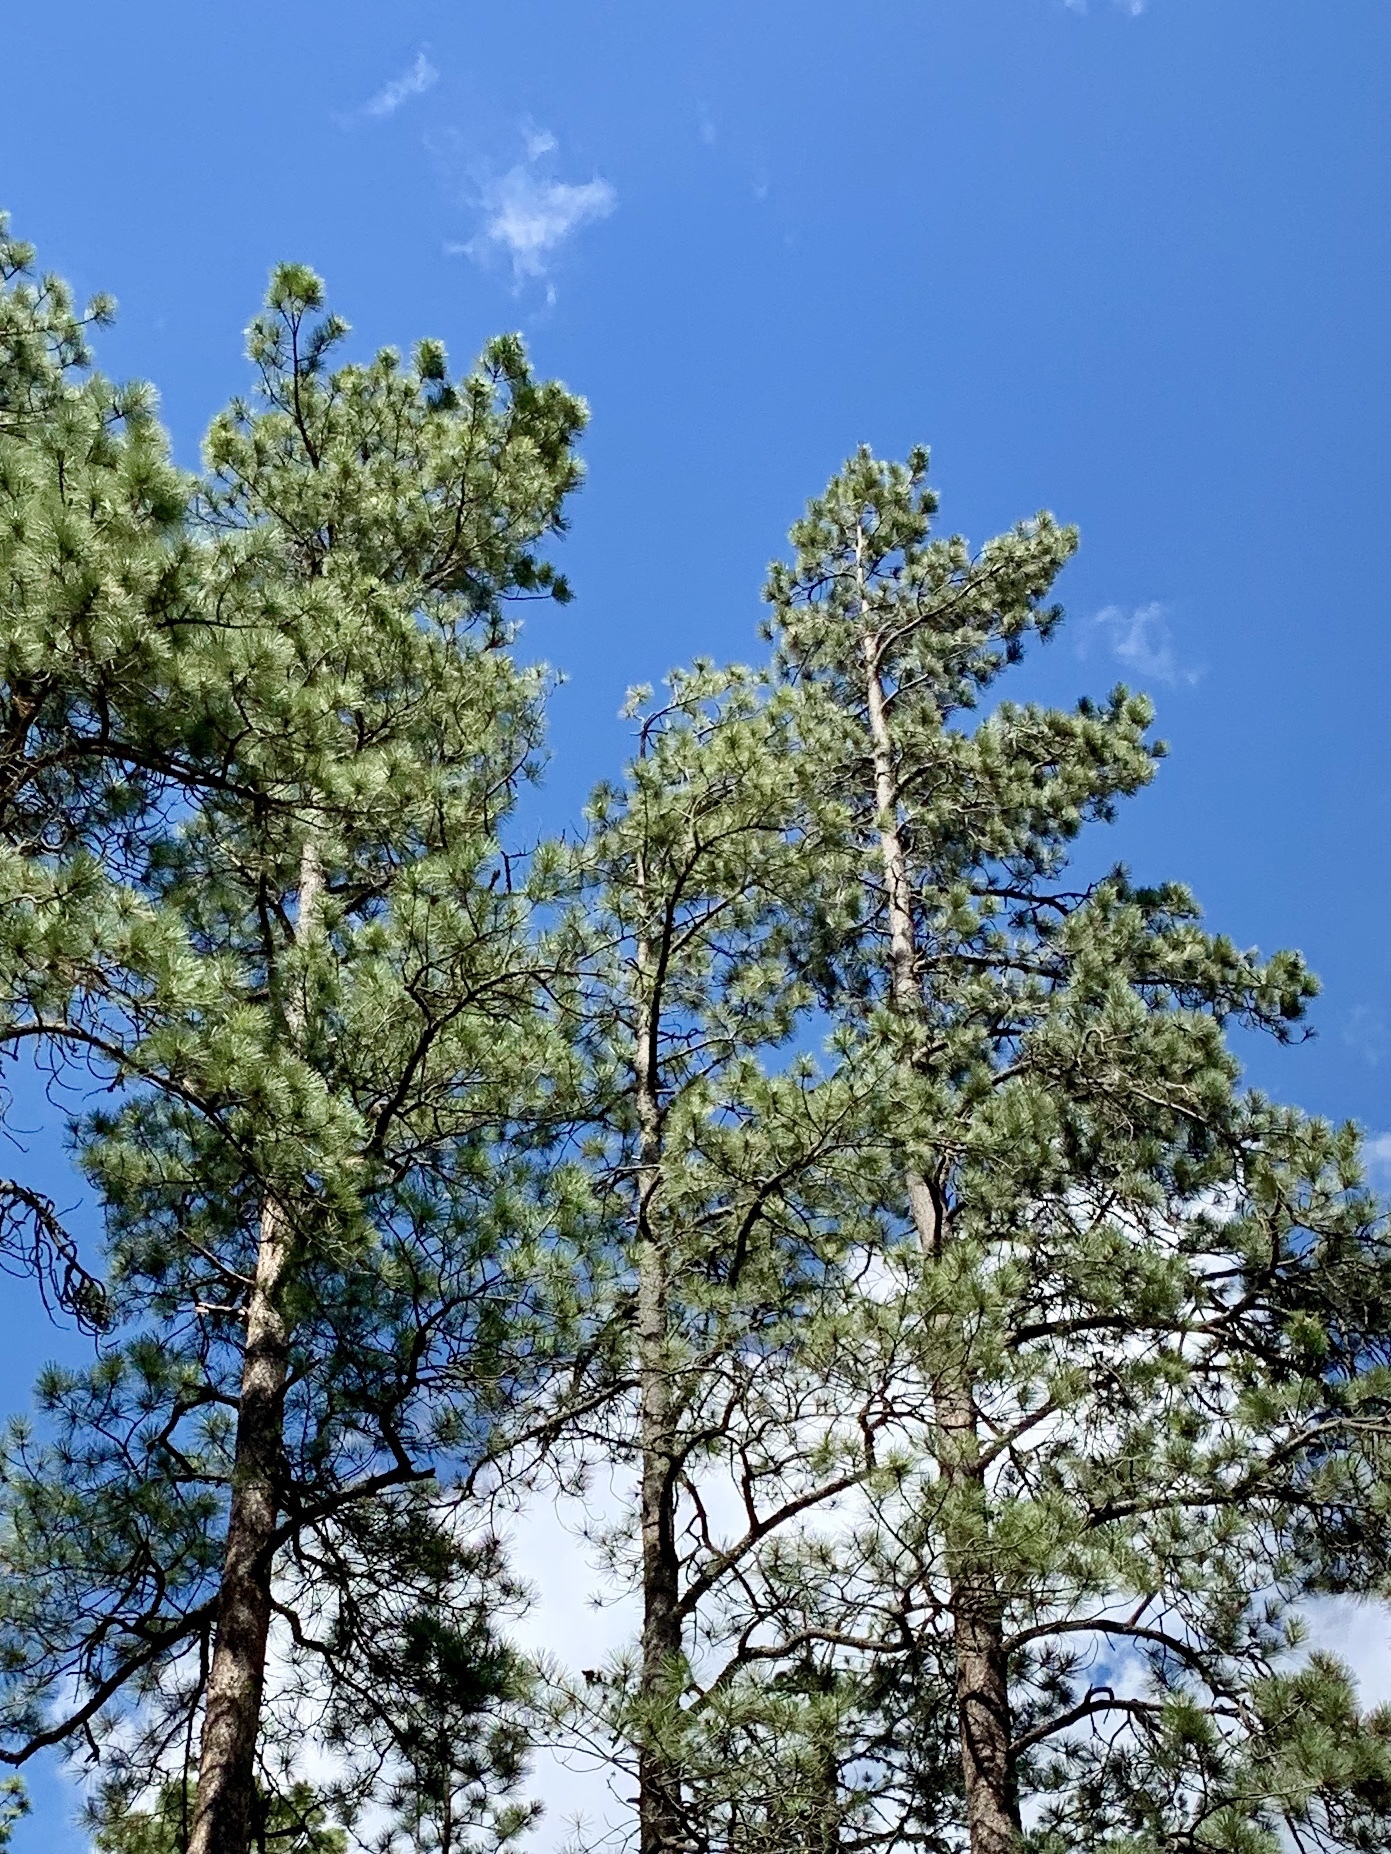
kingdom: Plantae
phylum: Tracheophyta
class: Pinopsida
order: Pinales
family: Pinaceae
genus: Pinus
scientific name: Pinus ponderosa
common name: Western yellow-pine
